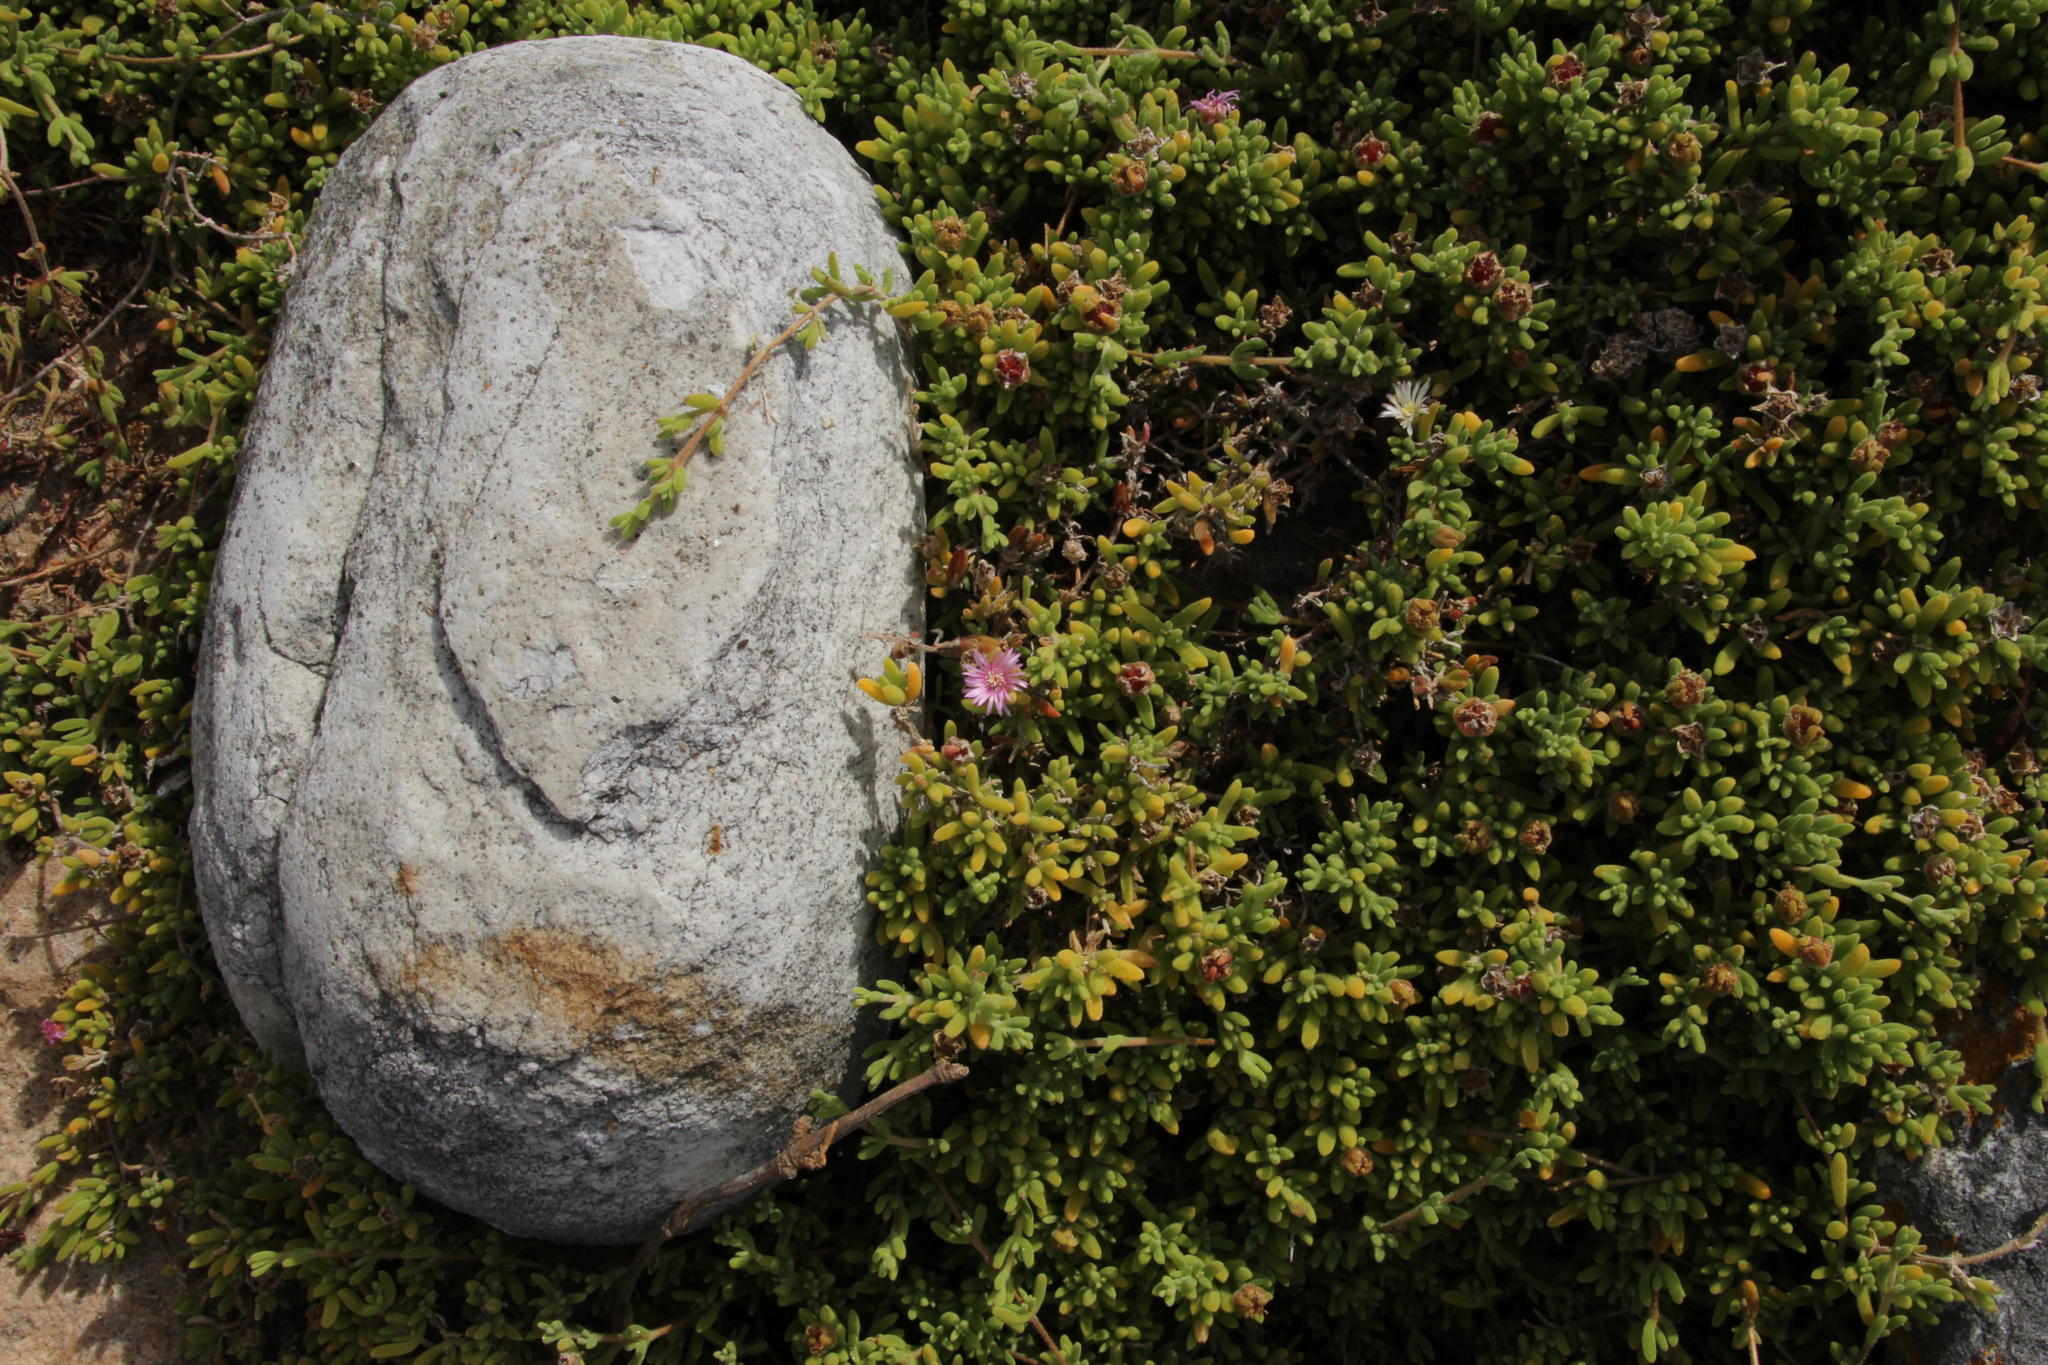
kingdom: Plantae
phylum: Tracheophyta
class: Magnoliopsida
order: Caryophyllales
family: Aizoaceae
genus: Drosanthemum
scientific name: Drosanthemum candens
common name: Rodondo-creeper
